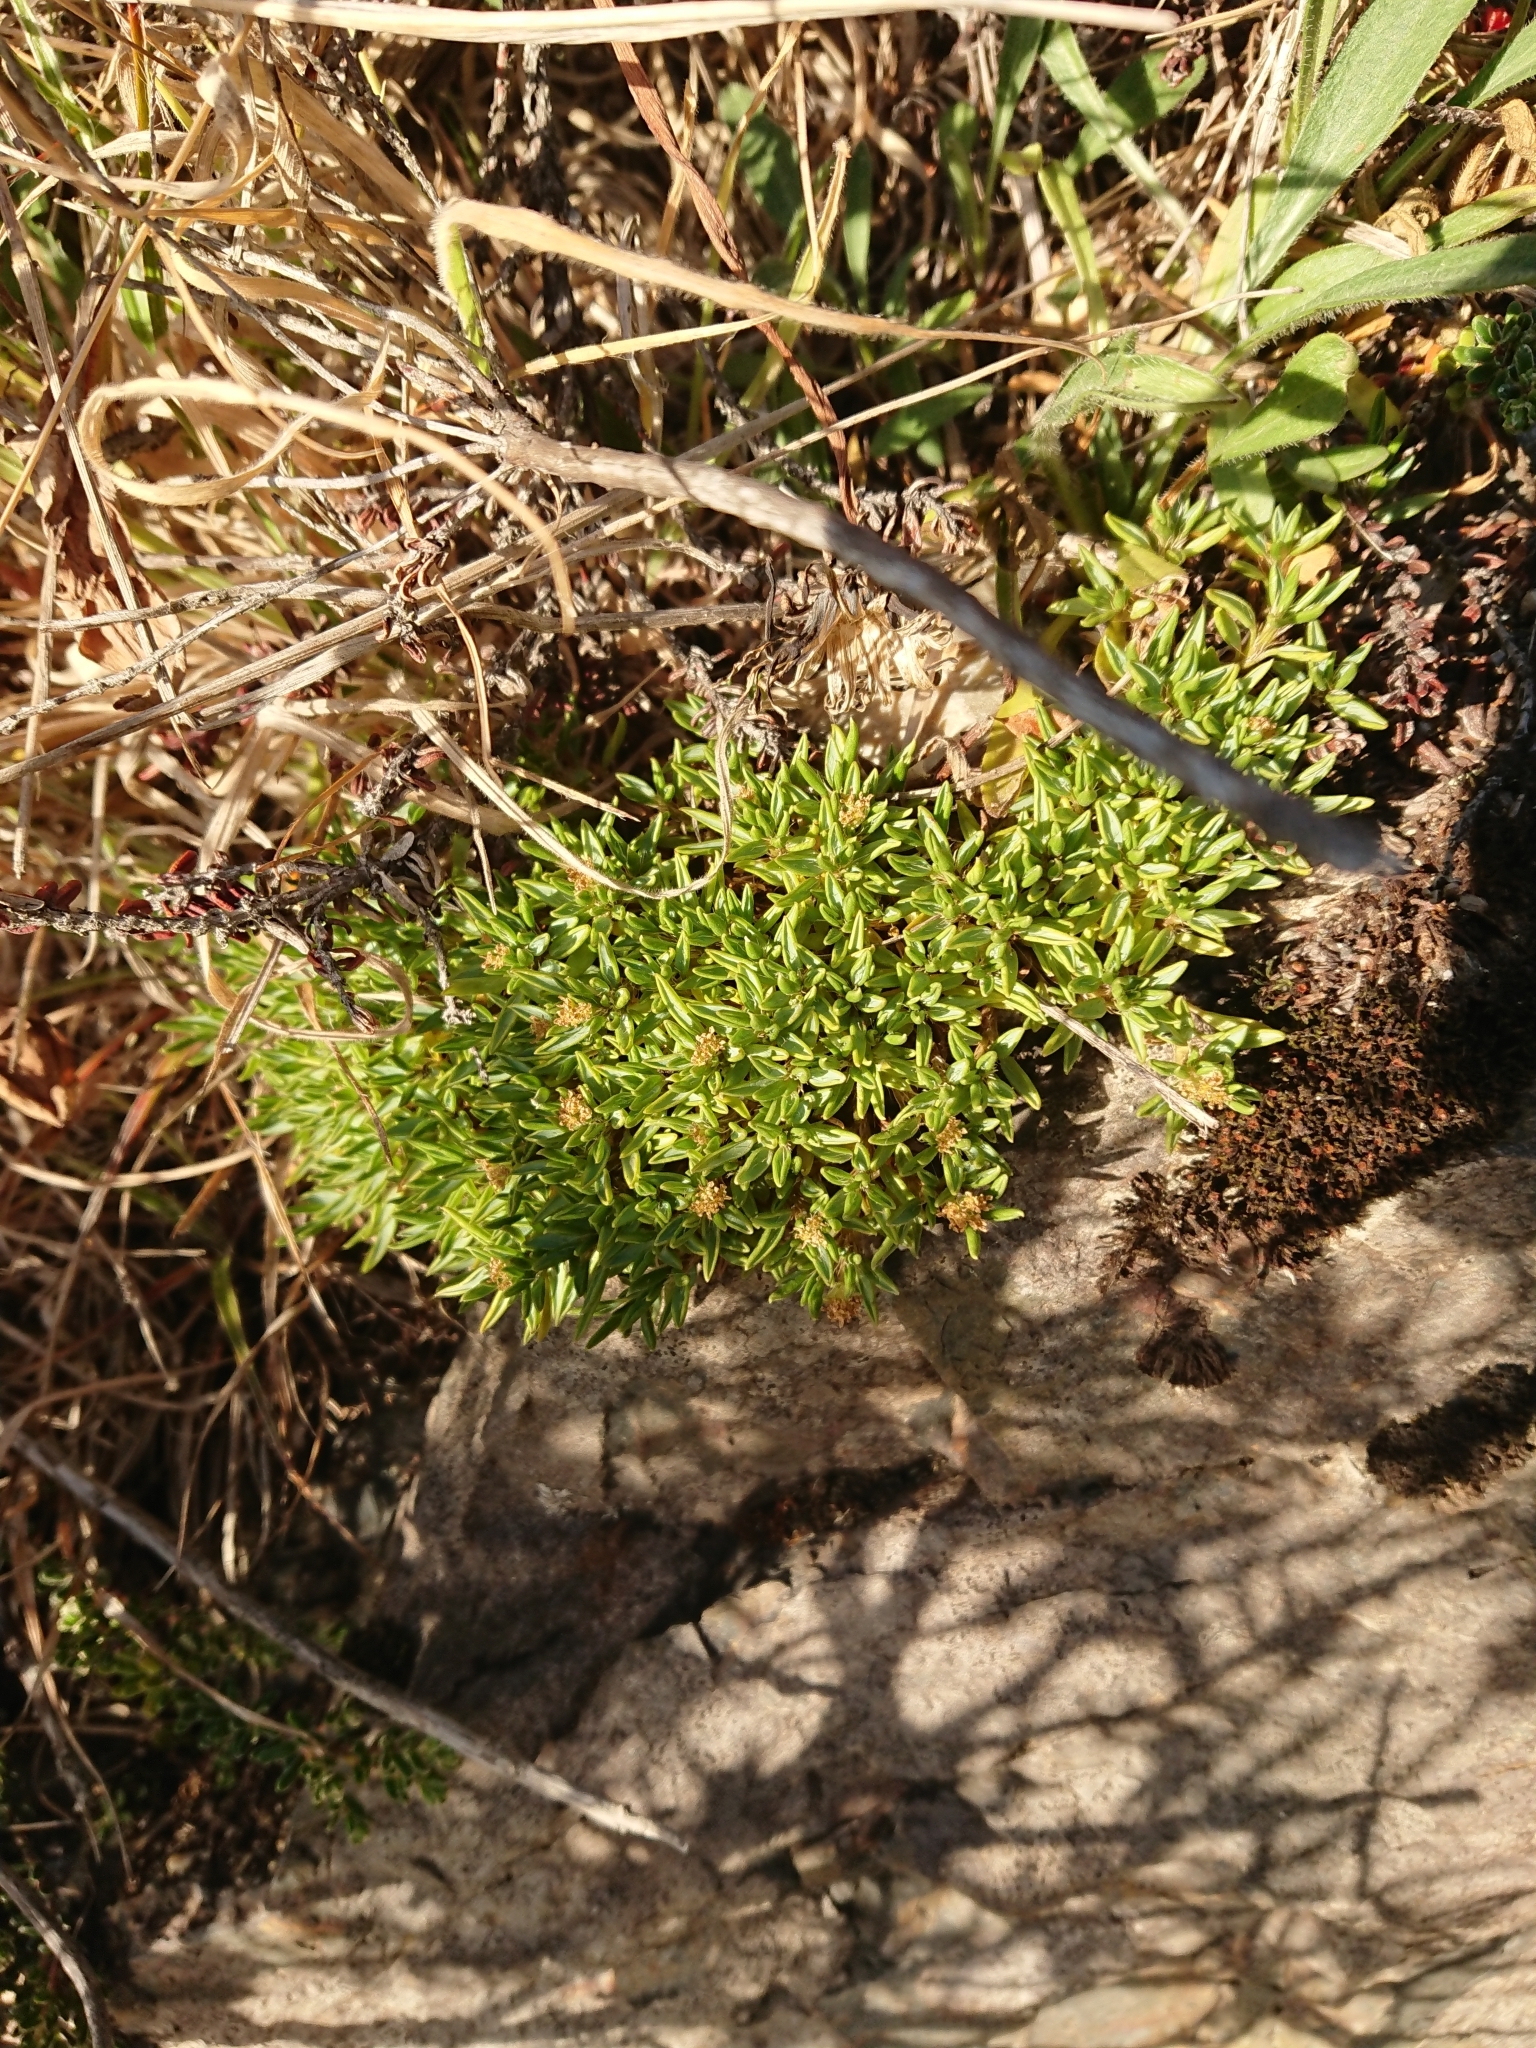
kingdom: Plantae
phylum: Tracheophyta
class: Magnoliopsida
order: Apiales
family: Apiaceae
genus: Azorella
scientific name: Azorella filamentosa
